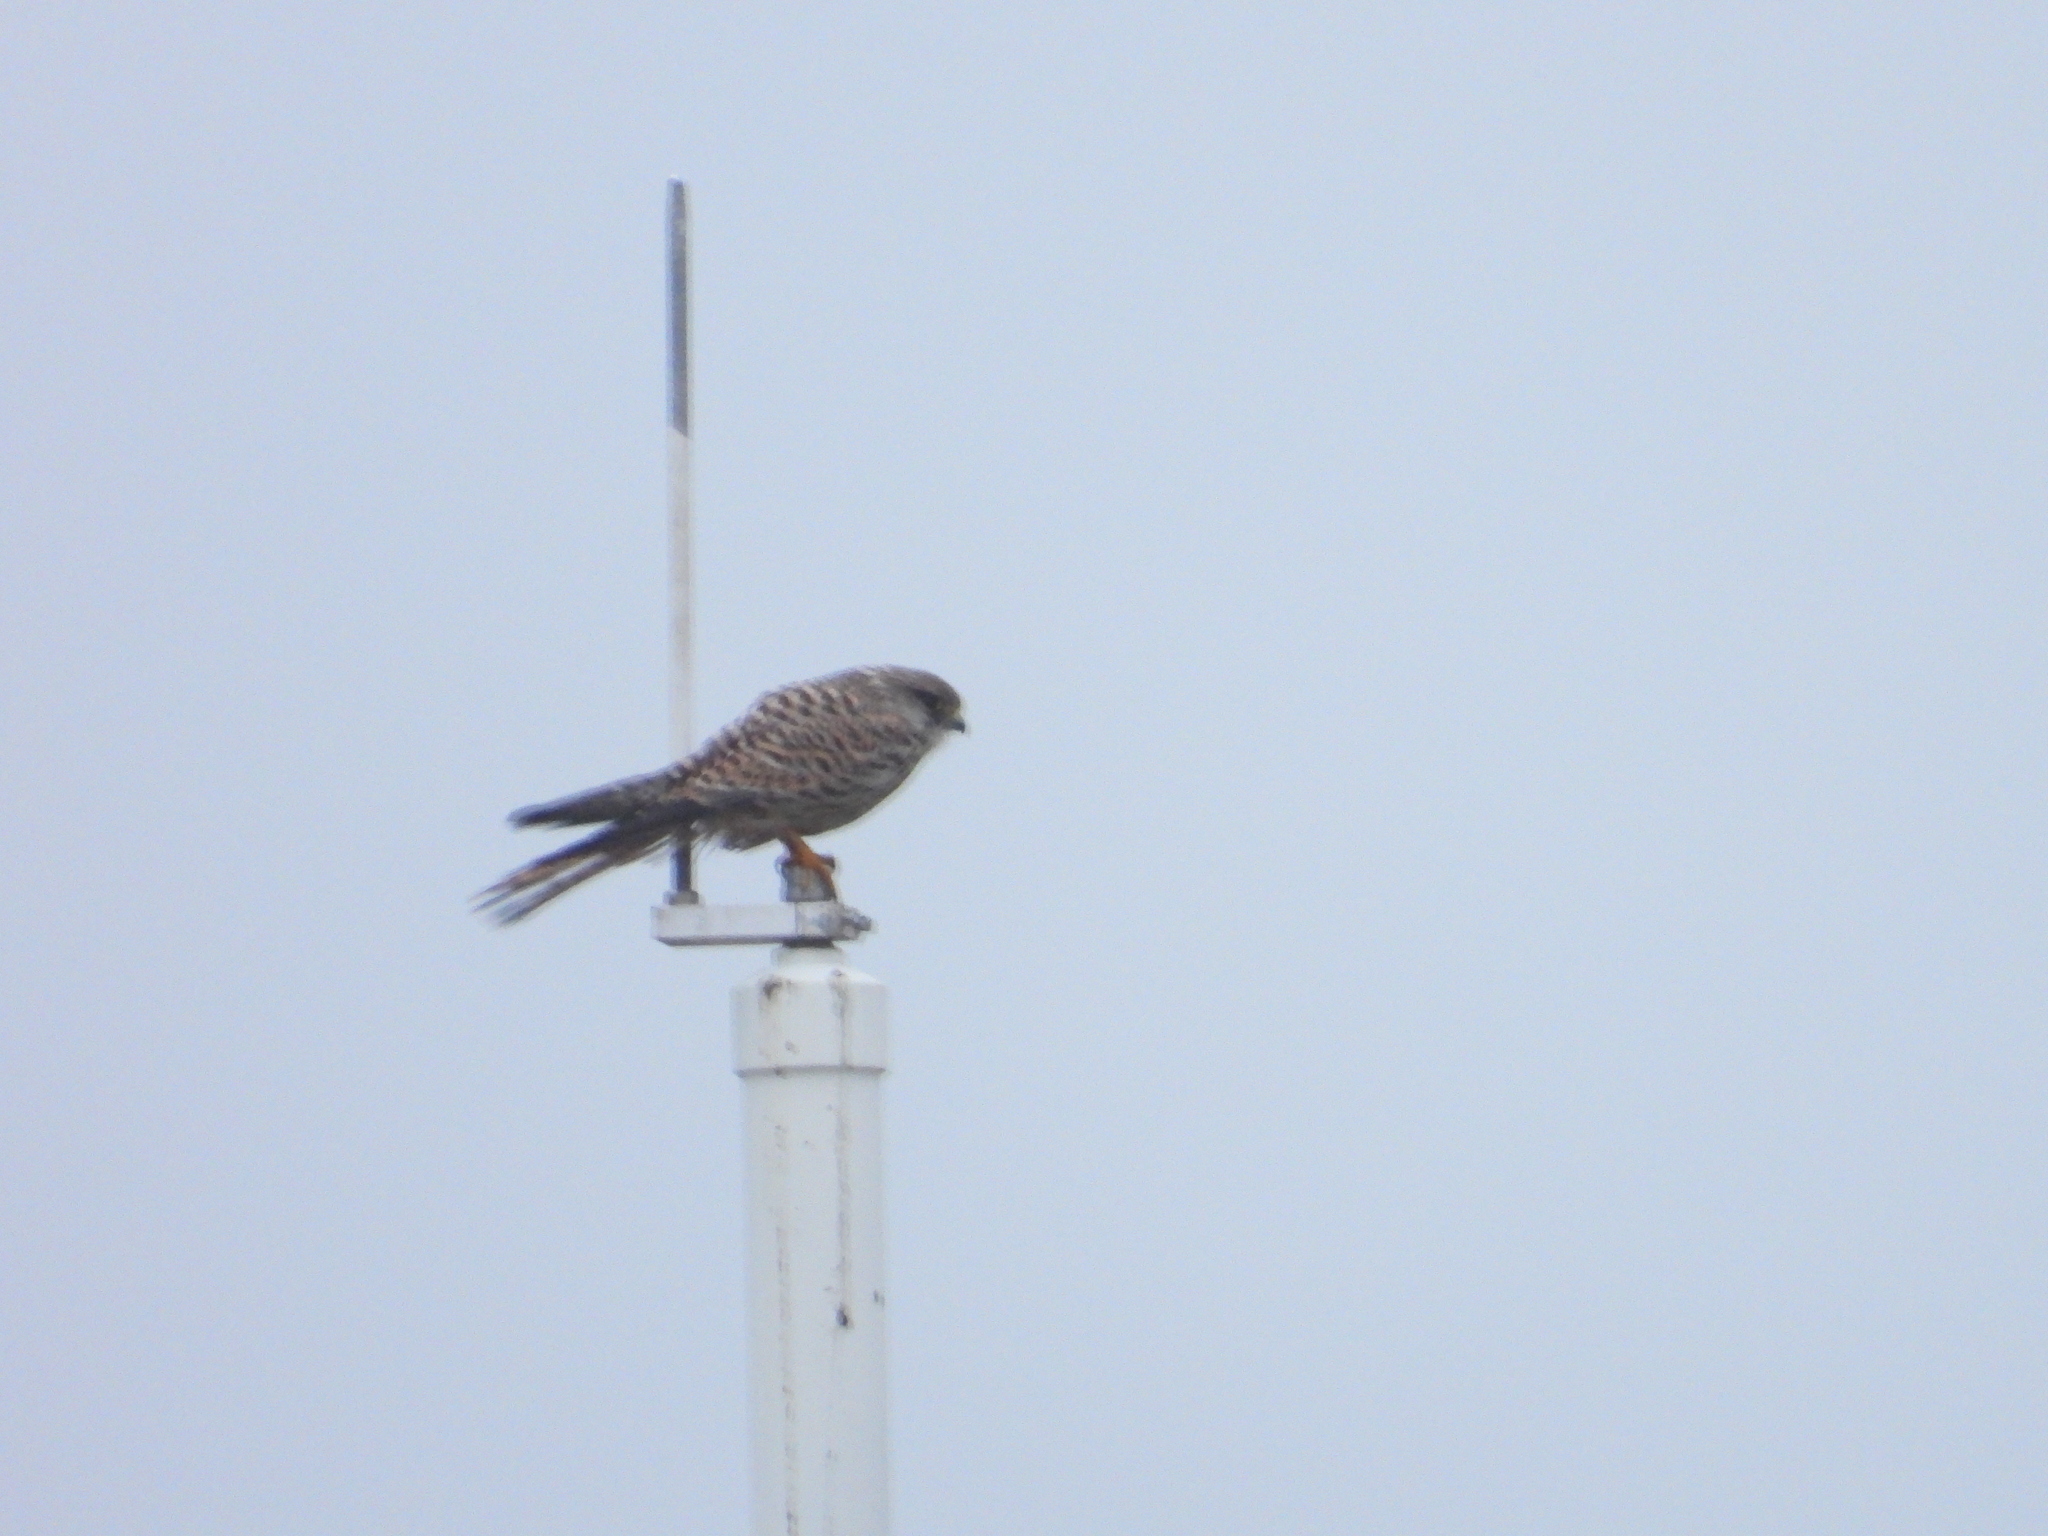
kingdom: Animalia
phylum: Chordata
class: Aves
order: Falconiformes
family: Falconidae
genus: Falco
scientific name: Falco tinnunculus
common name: Common kestrel
